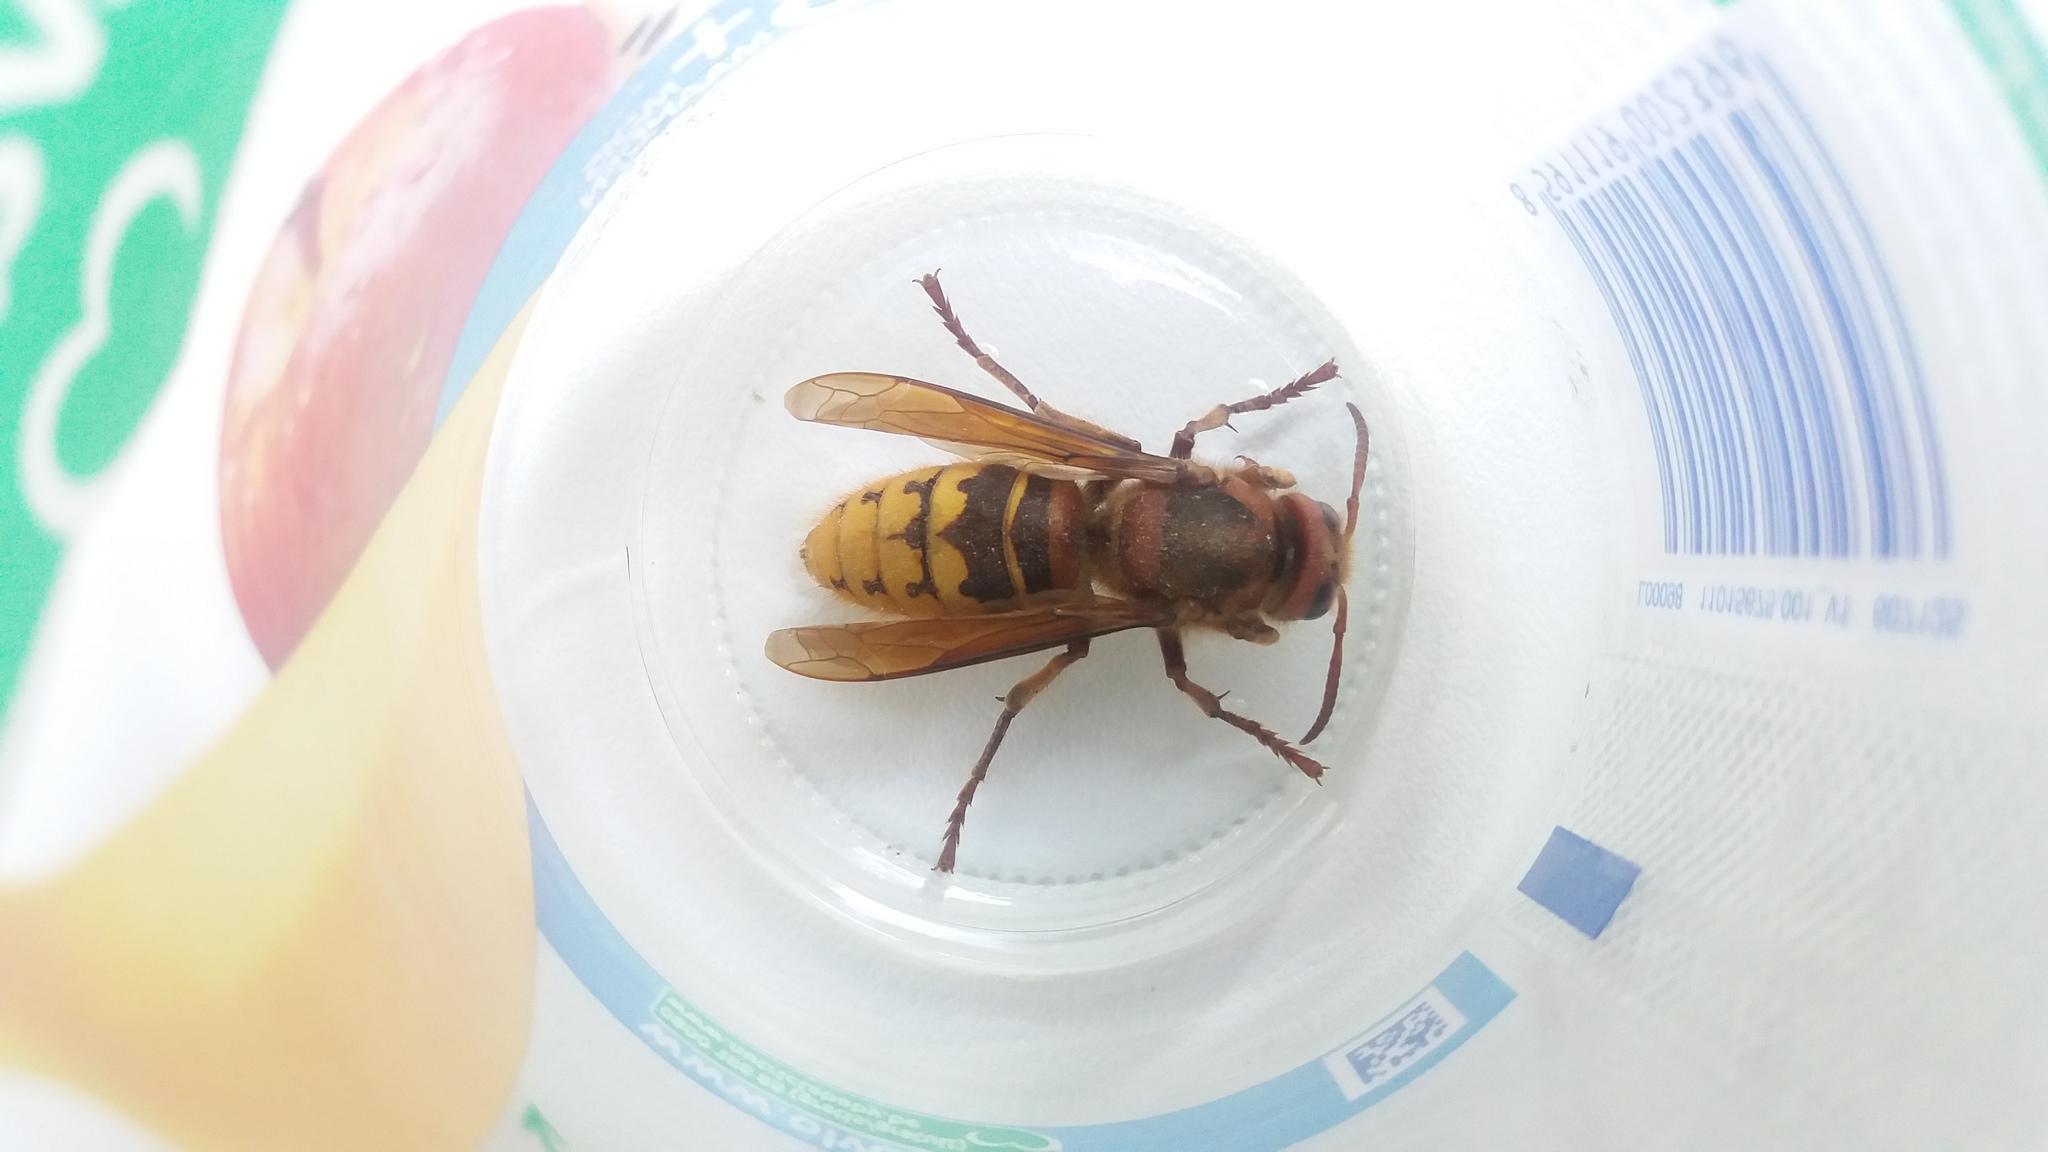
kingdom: Animalia
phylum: Arthropoda
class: Insecta
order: Hymenoptera
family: Vespidae
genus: Vespa
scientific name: Vespa crabro
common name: Hornet
